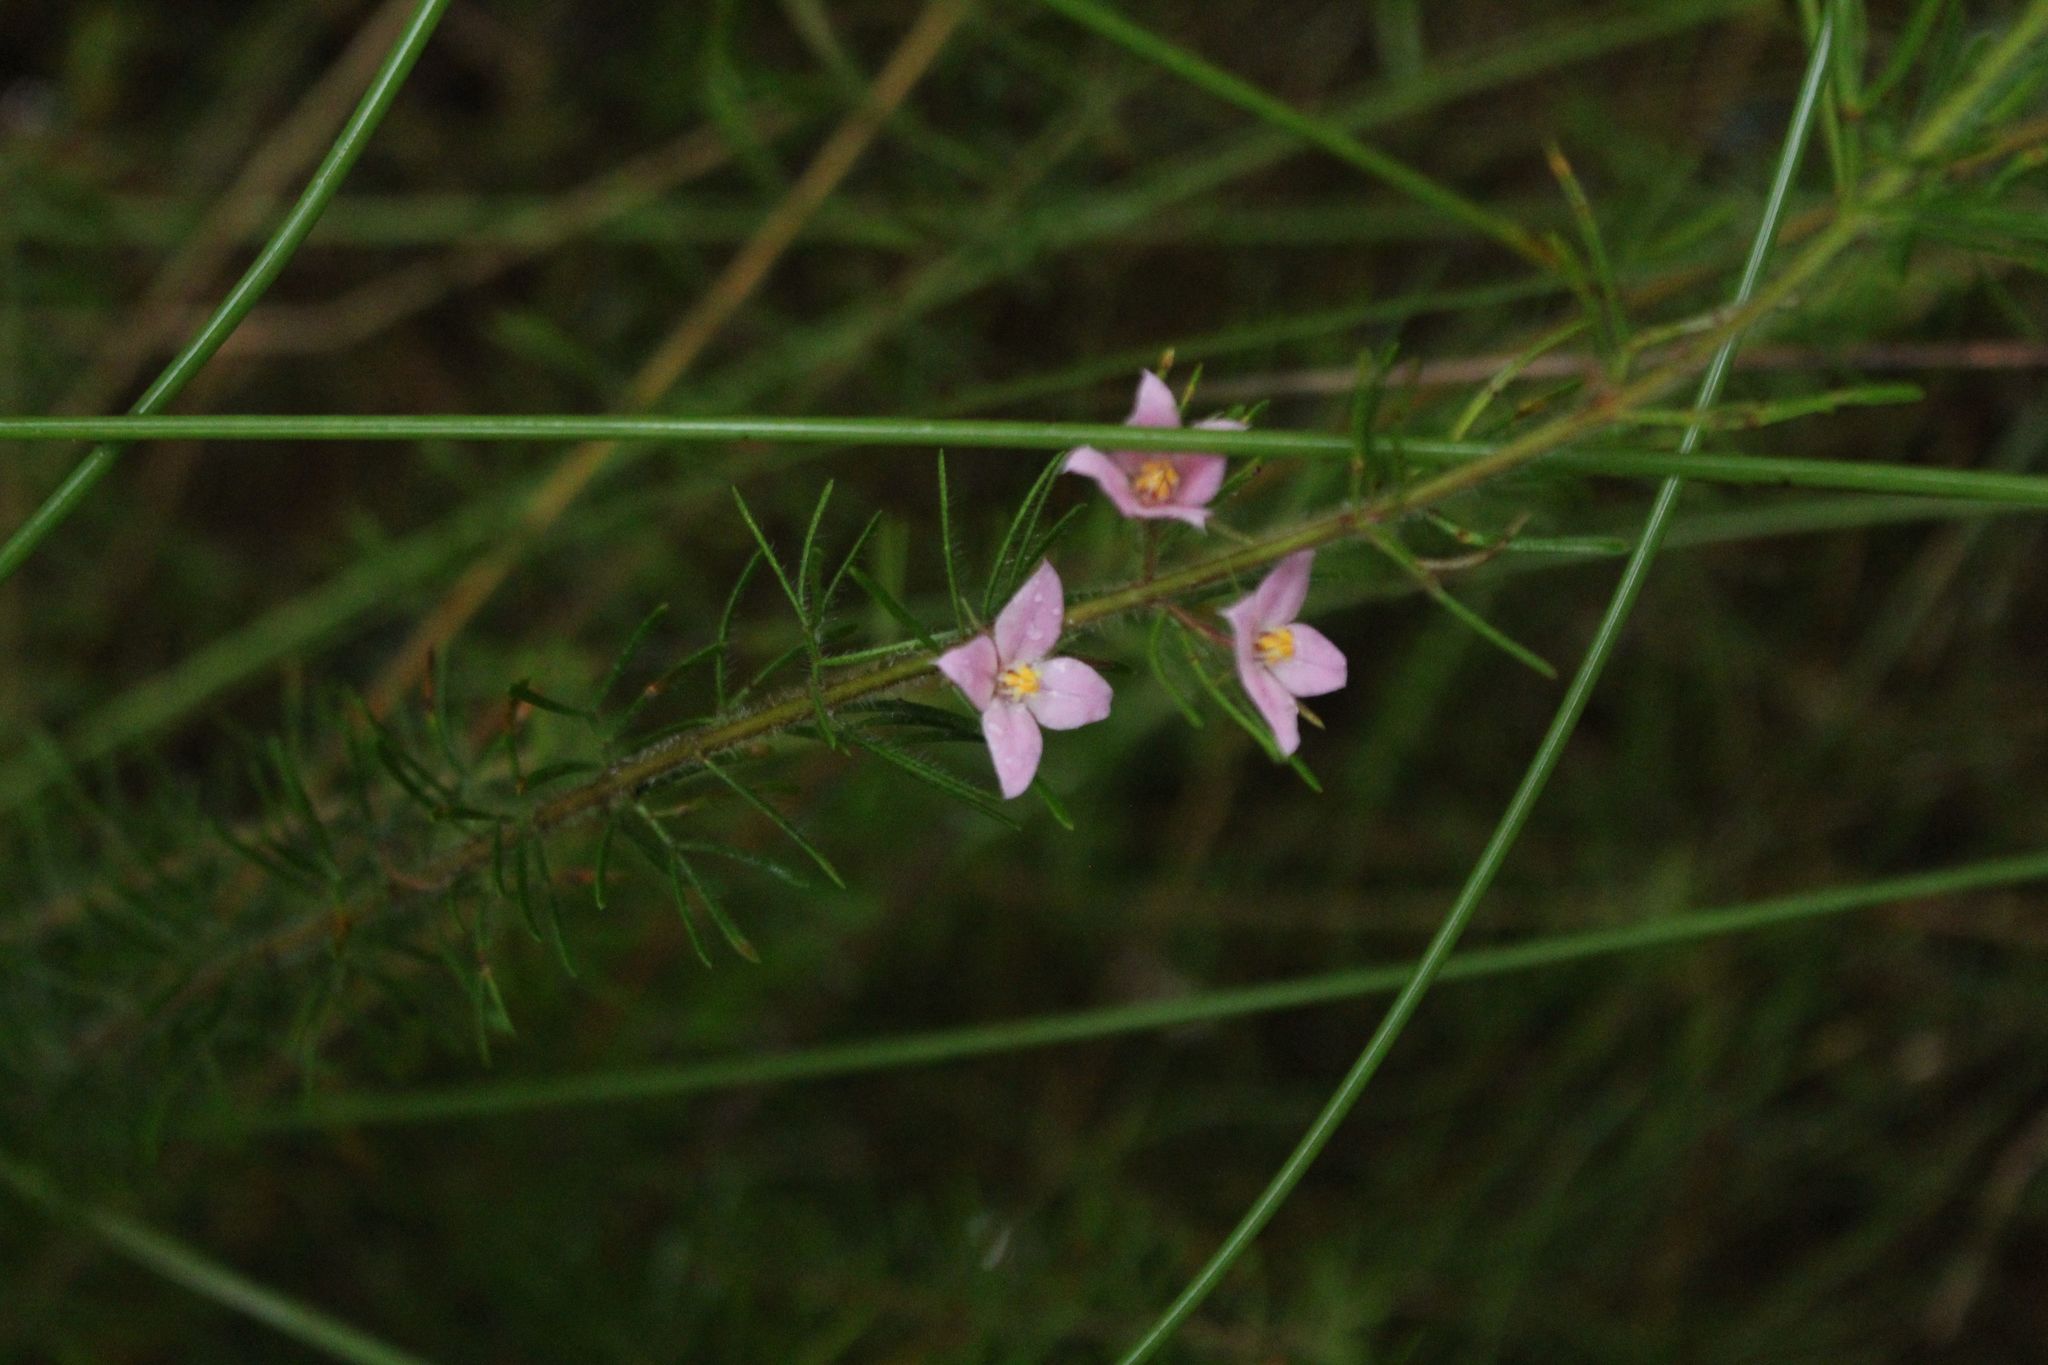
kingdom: Plantae
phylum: Tracheophyta
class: Magnoliopsida
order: Sapindales
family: Rutaceae
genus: Boronia
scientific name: Boronia stricta
